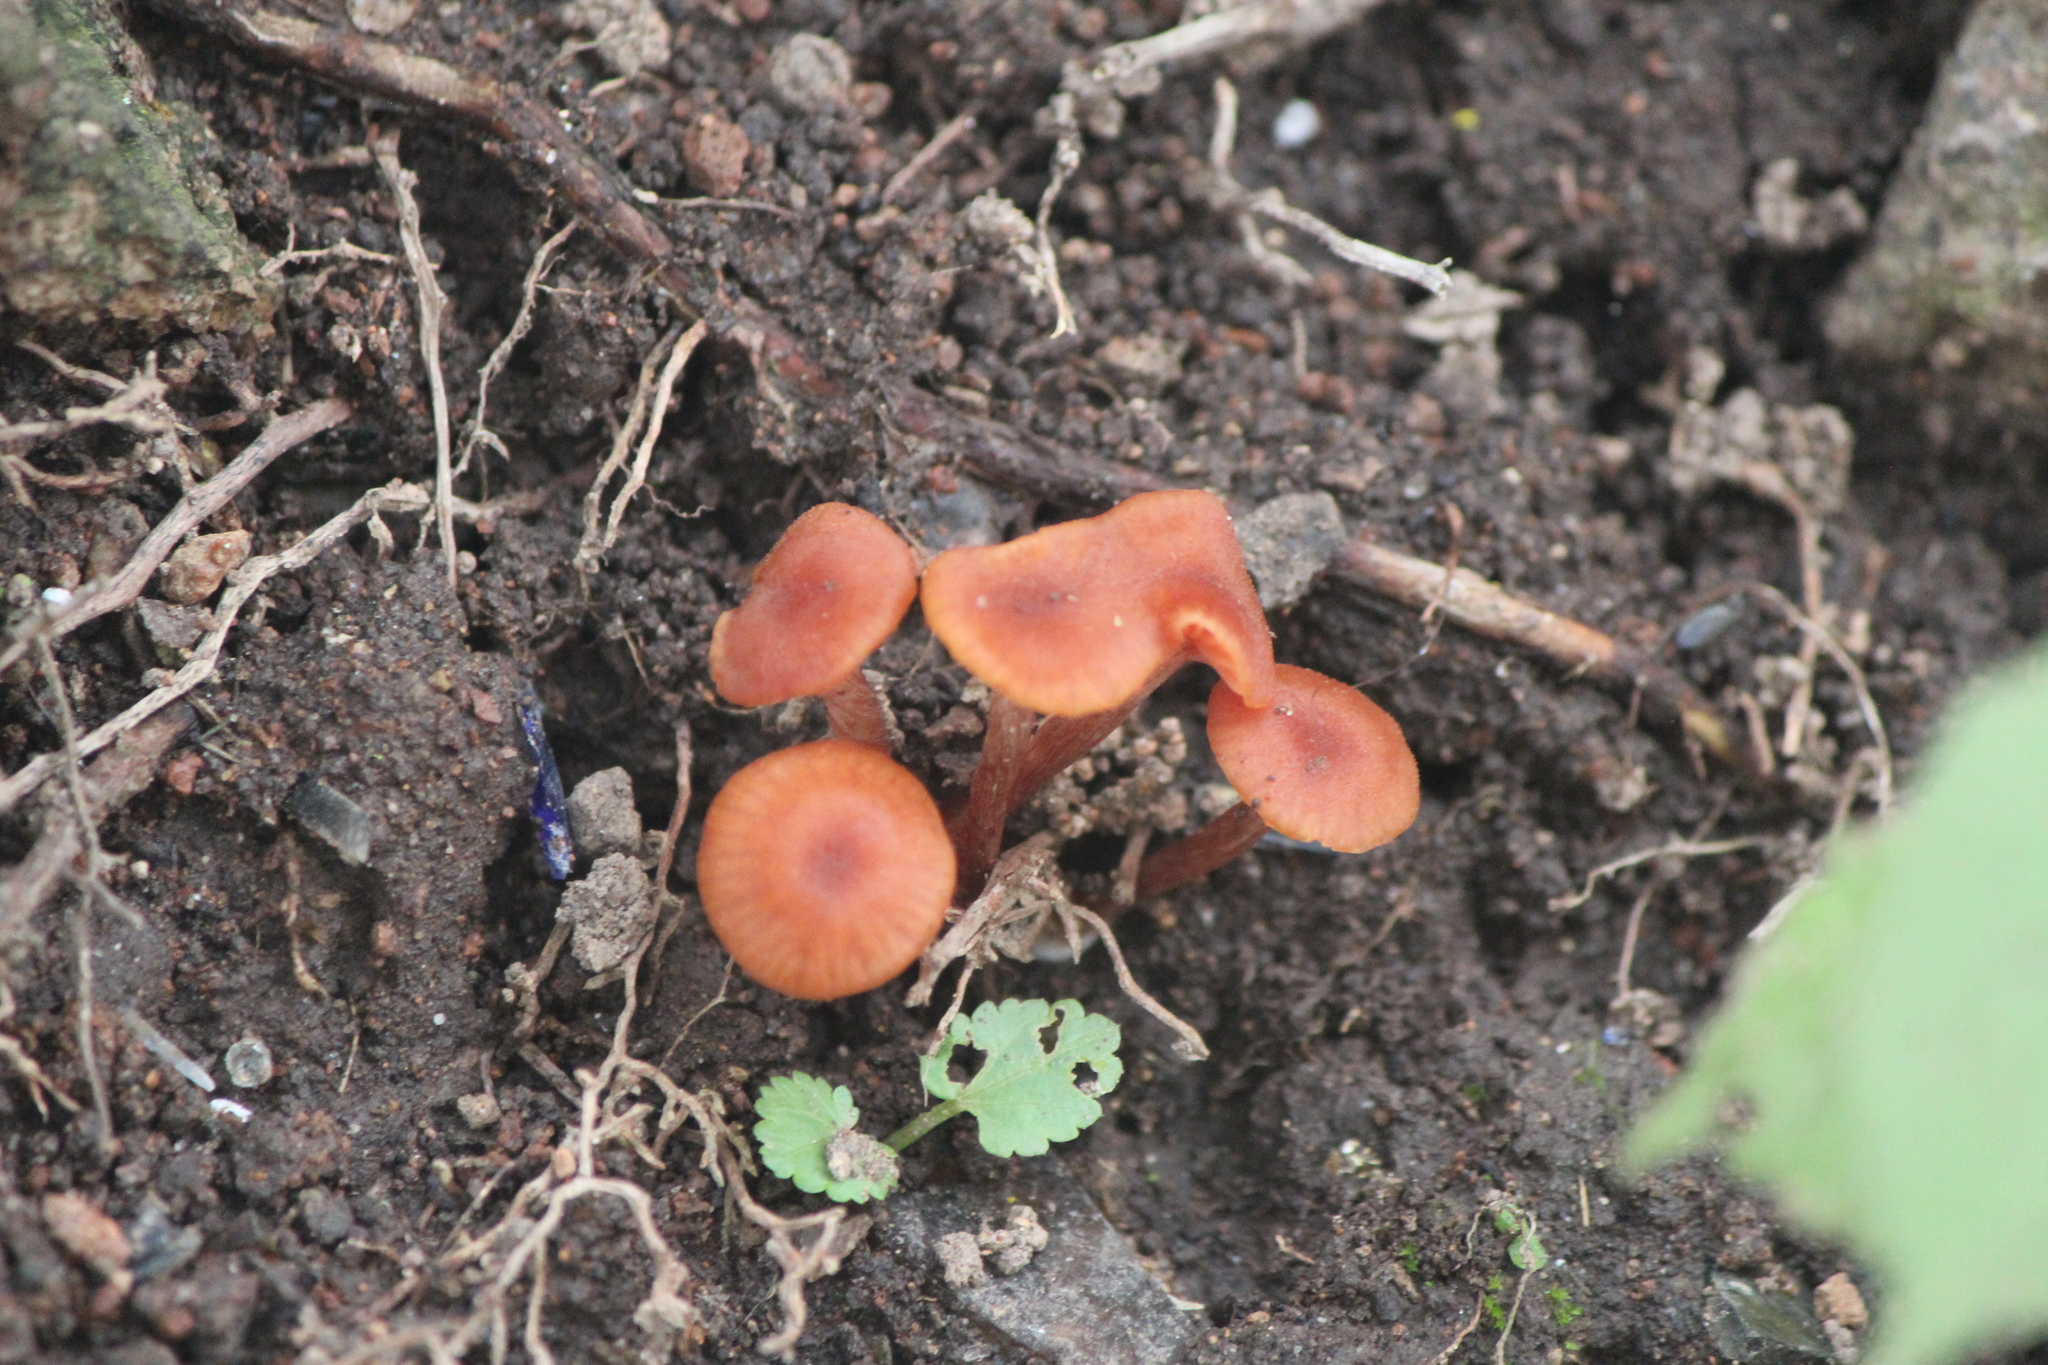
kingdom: Fungi
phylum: Basidiomycota
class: Agaricomycetes
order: Agaricales
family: Hydnangiaceae
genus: Laccaria
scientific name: Laccaria laccata
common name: Deceiver
